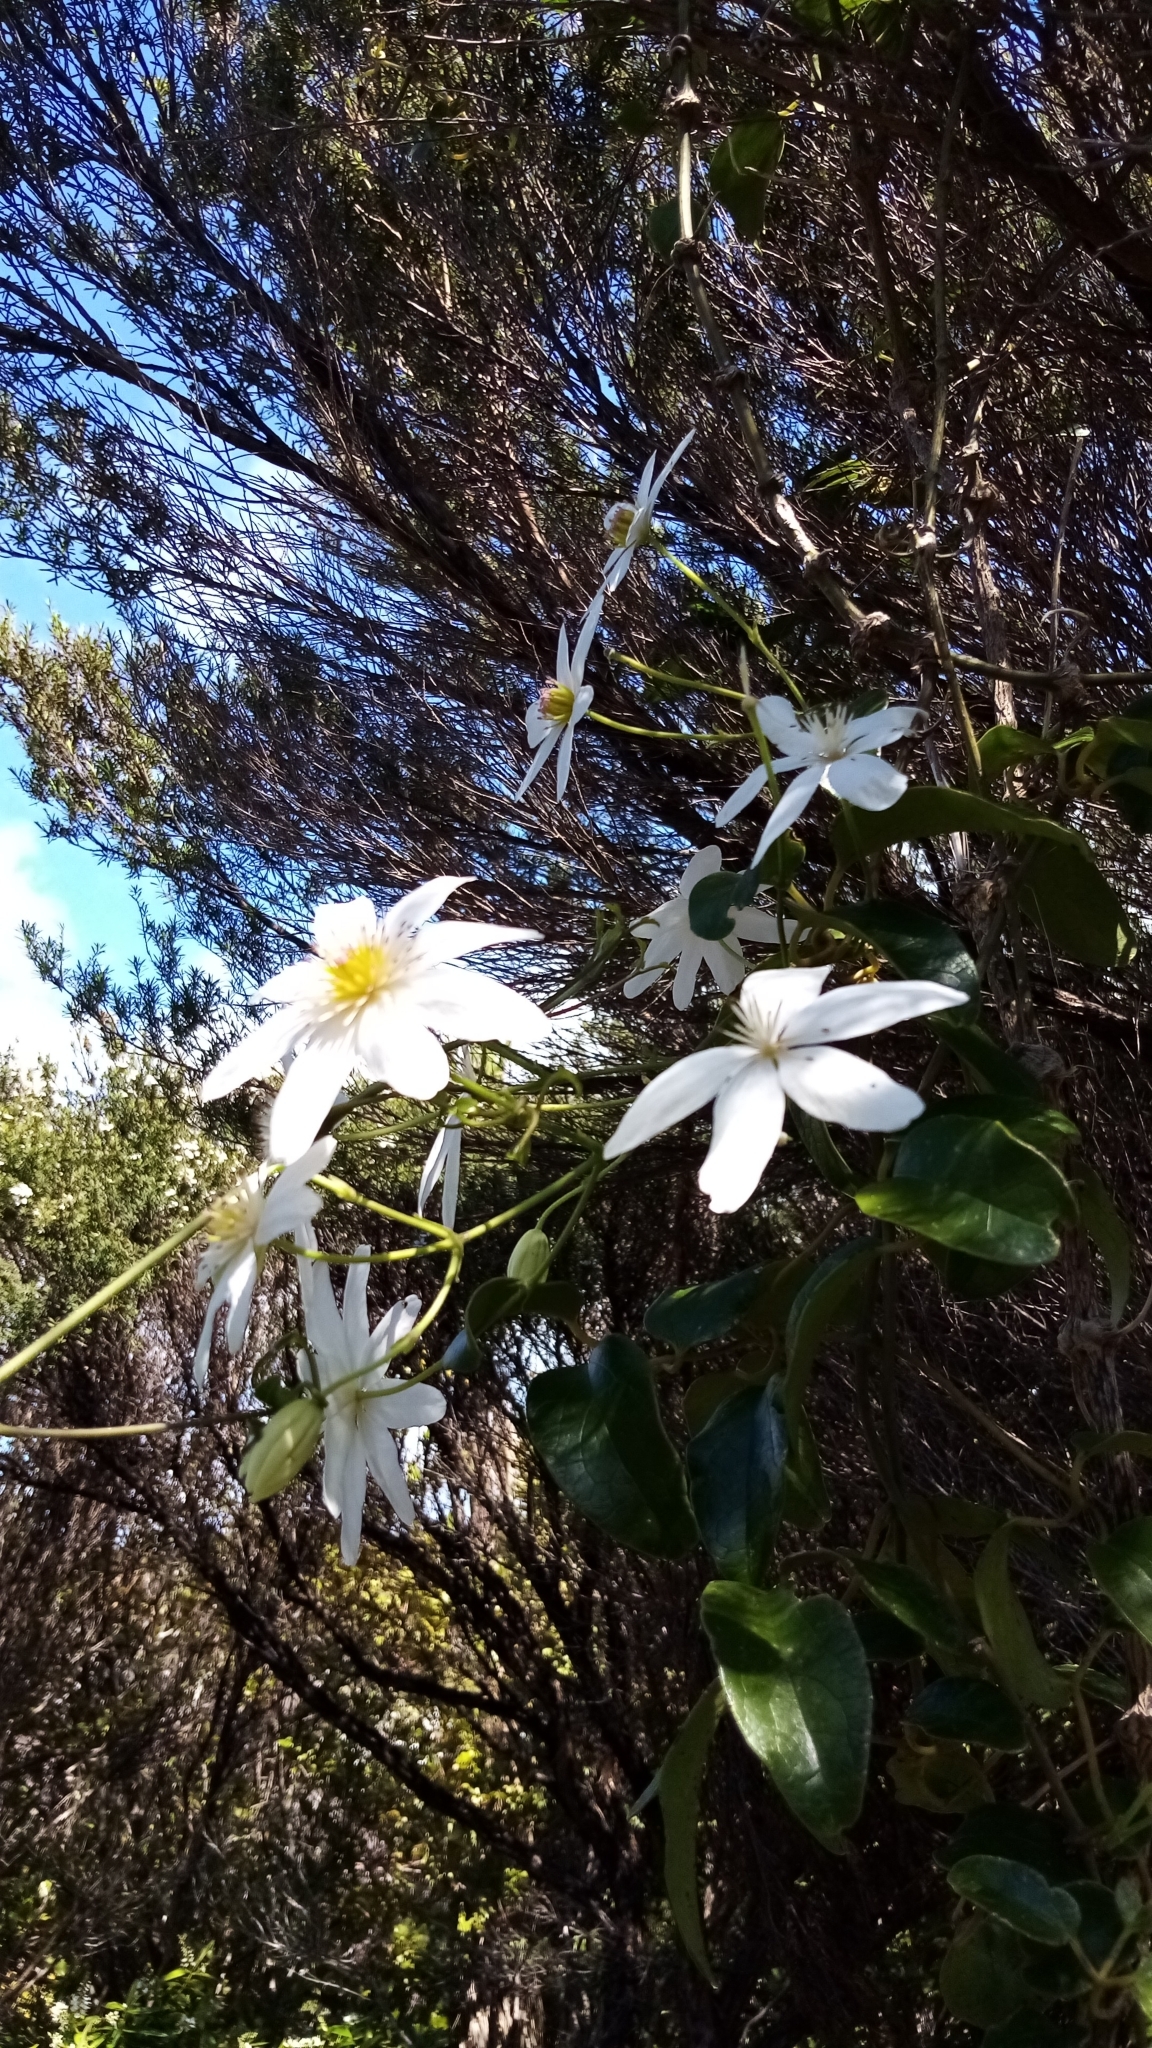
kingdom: Plantae
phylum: Tracheophyta
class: Magnoliopsida
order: Ranunculales
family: Ranunculaceae
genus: Clematis
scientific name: Clematis paniculata
